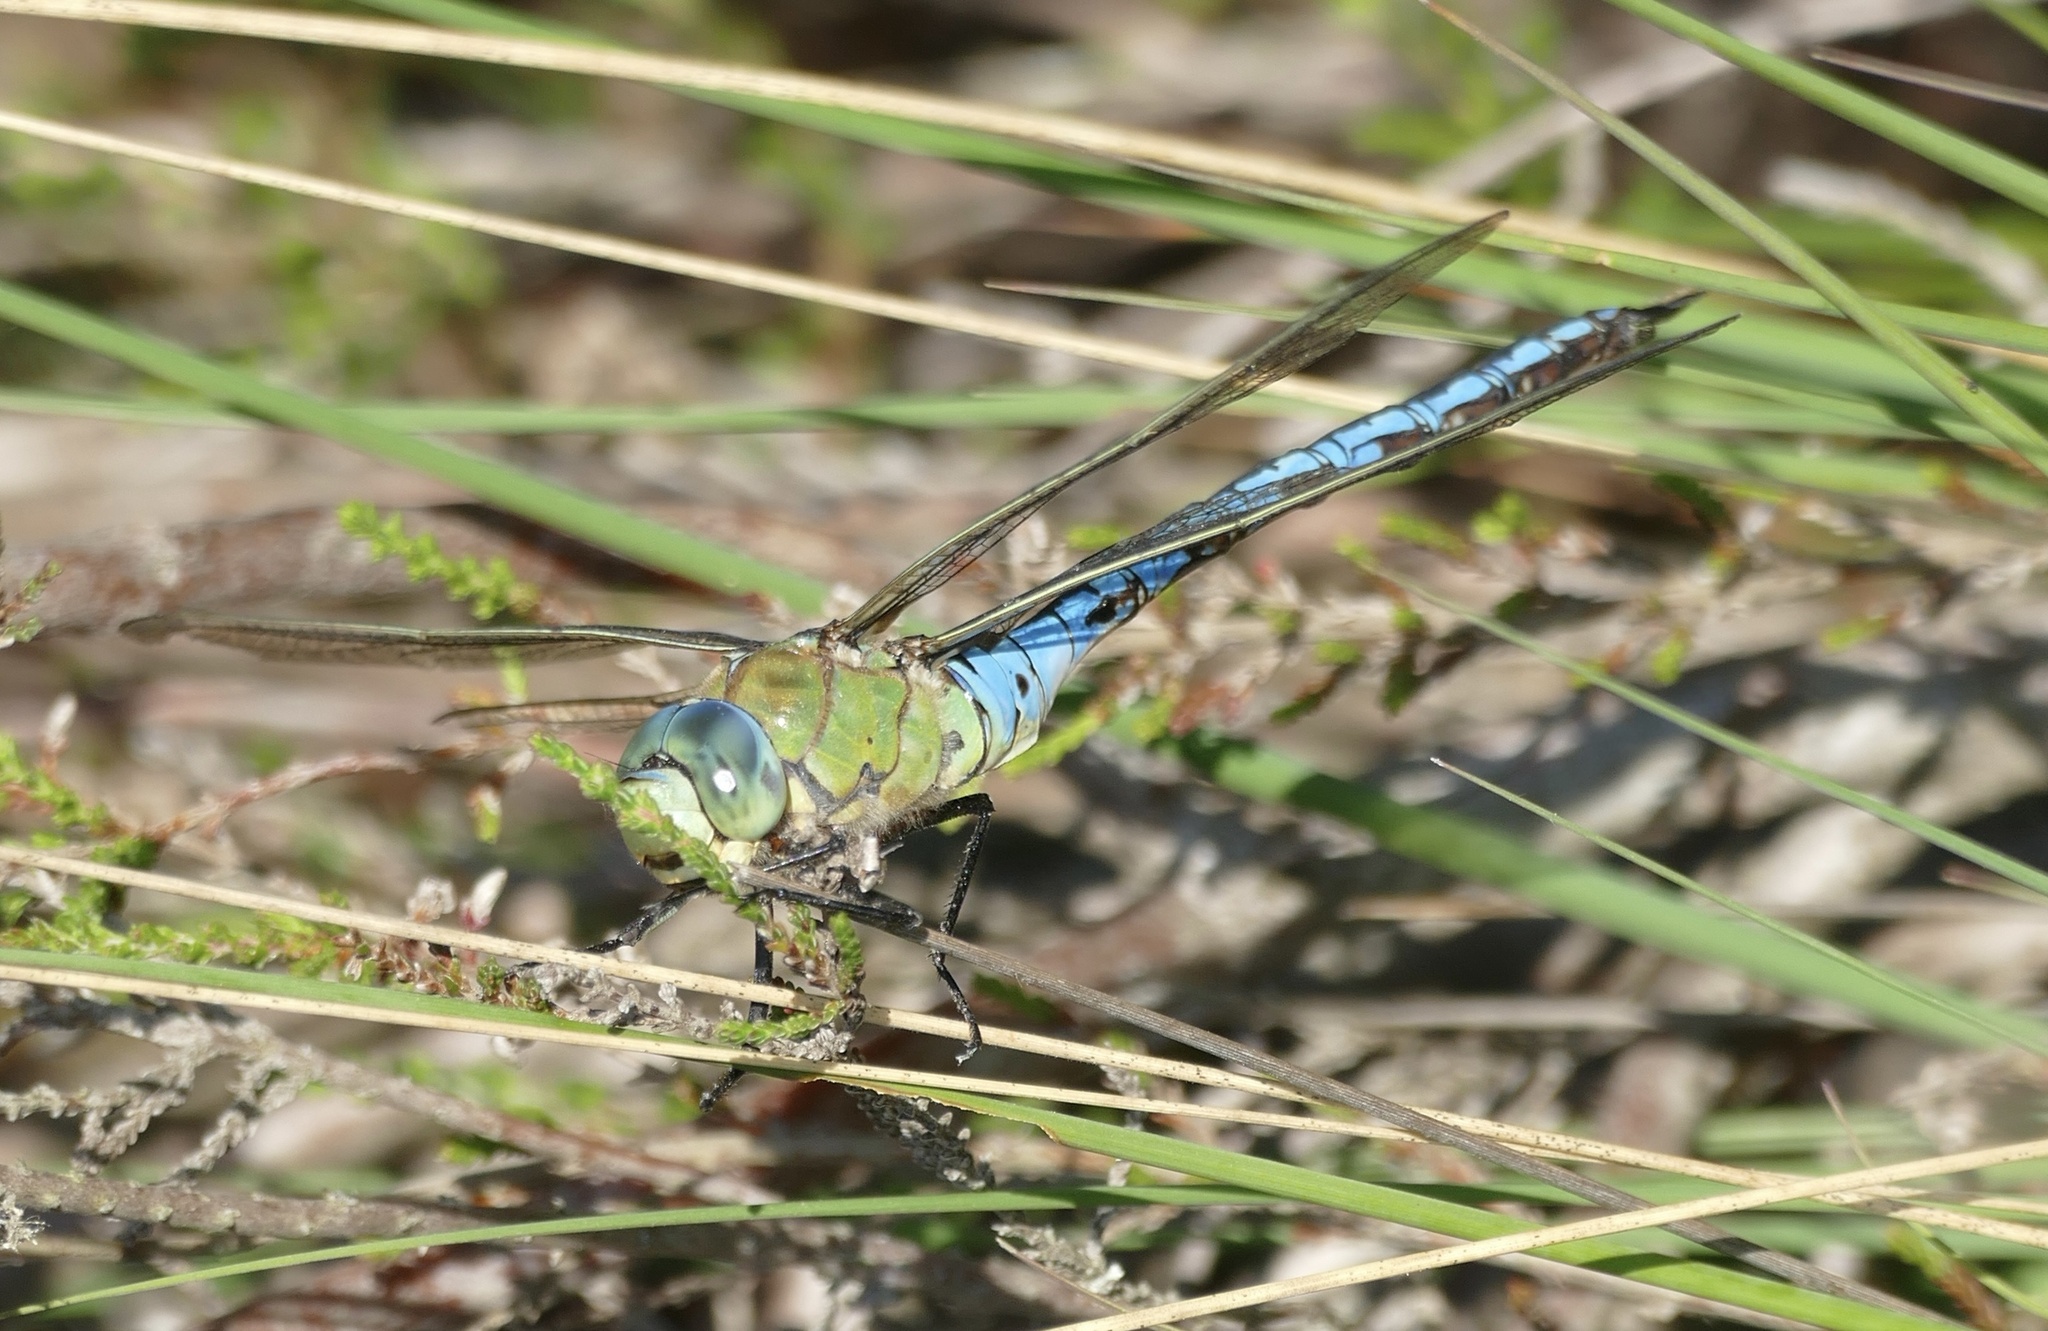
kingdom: Animalia
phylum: Arthropoda
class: Insecta
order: Odonata
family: Aeshnidae
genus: Anax
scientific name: Anax imperator
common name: Emperor dragonfly
